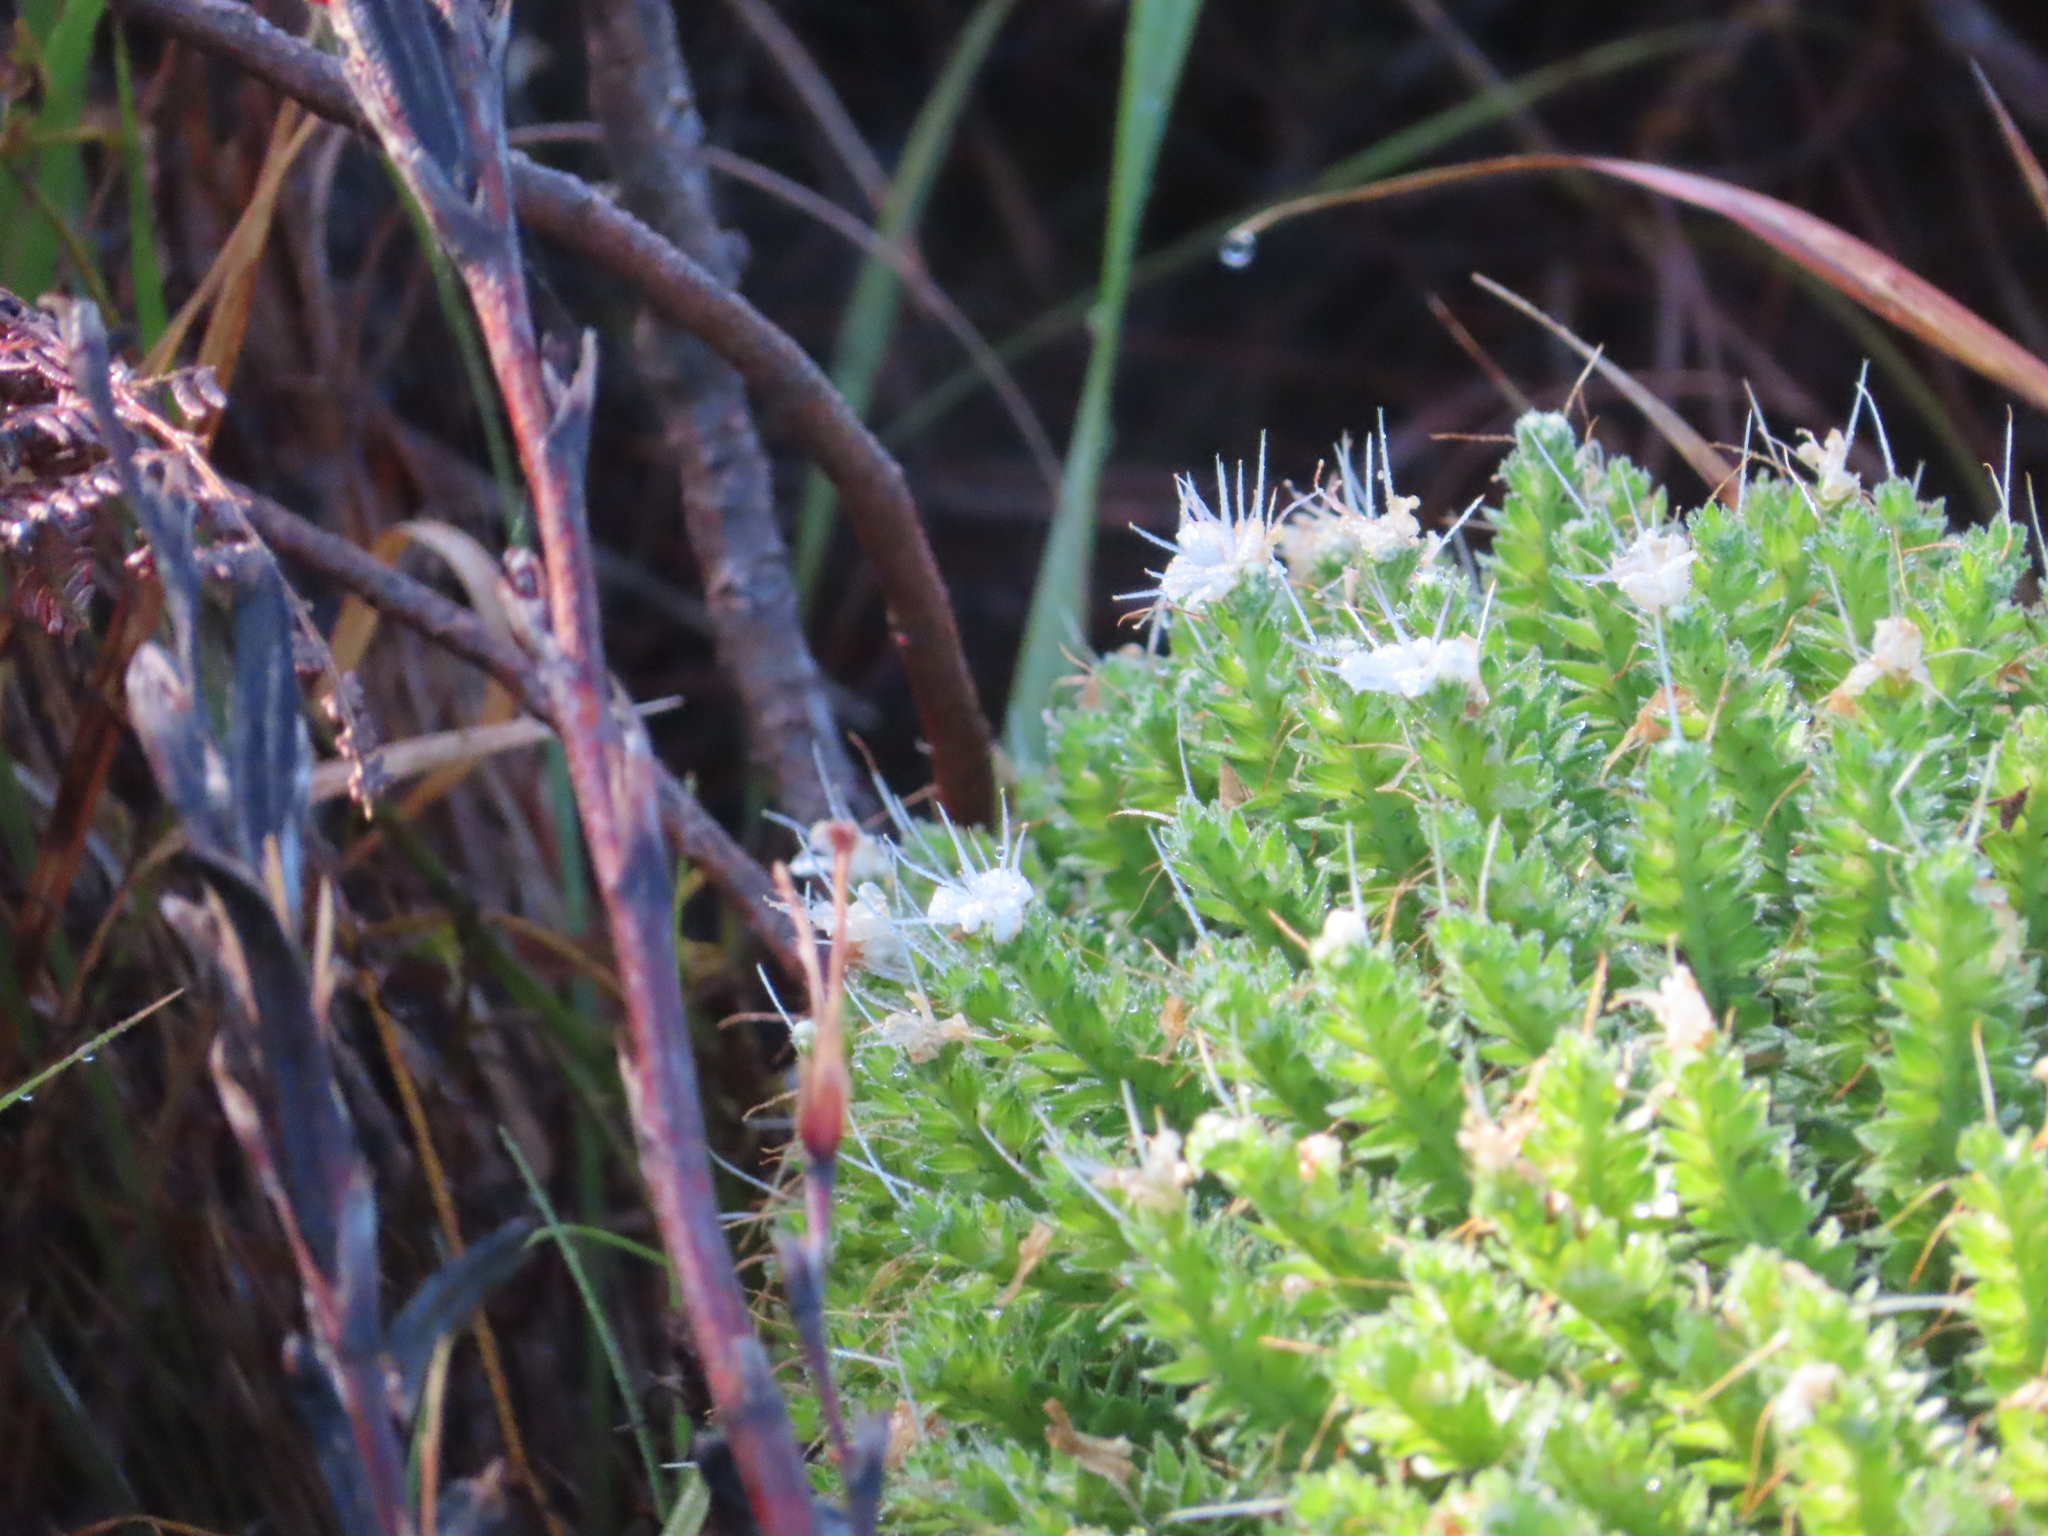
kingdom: Plantae
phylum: Tracheophyta
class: Magnoliopsida
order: Boraginales
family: Boraginaceae
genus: Echium
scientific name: Echium simplex
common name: Pride-of-tenerife
